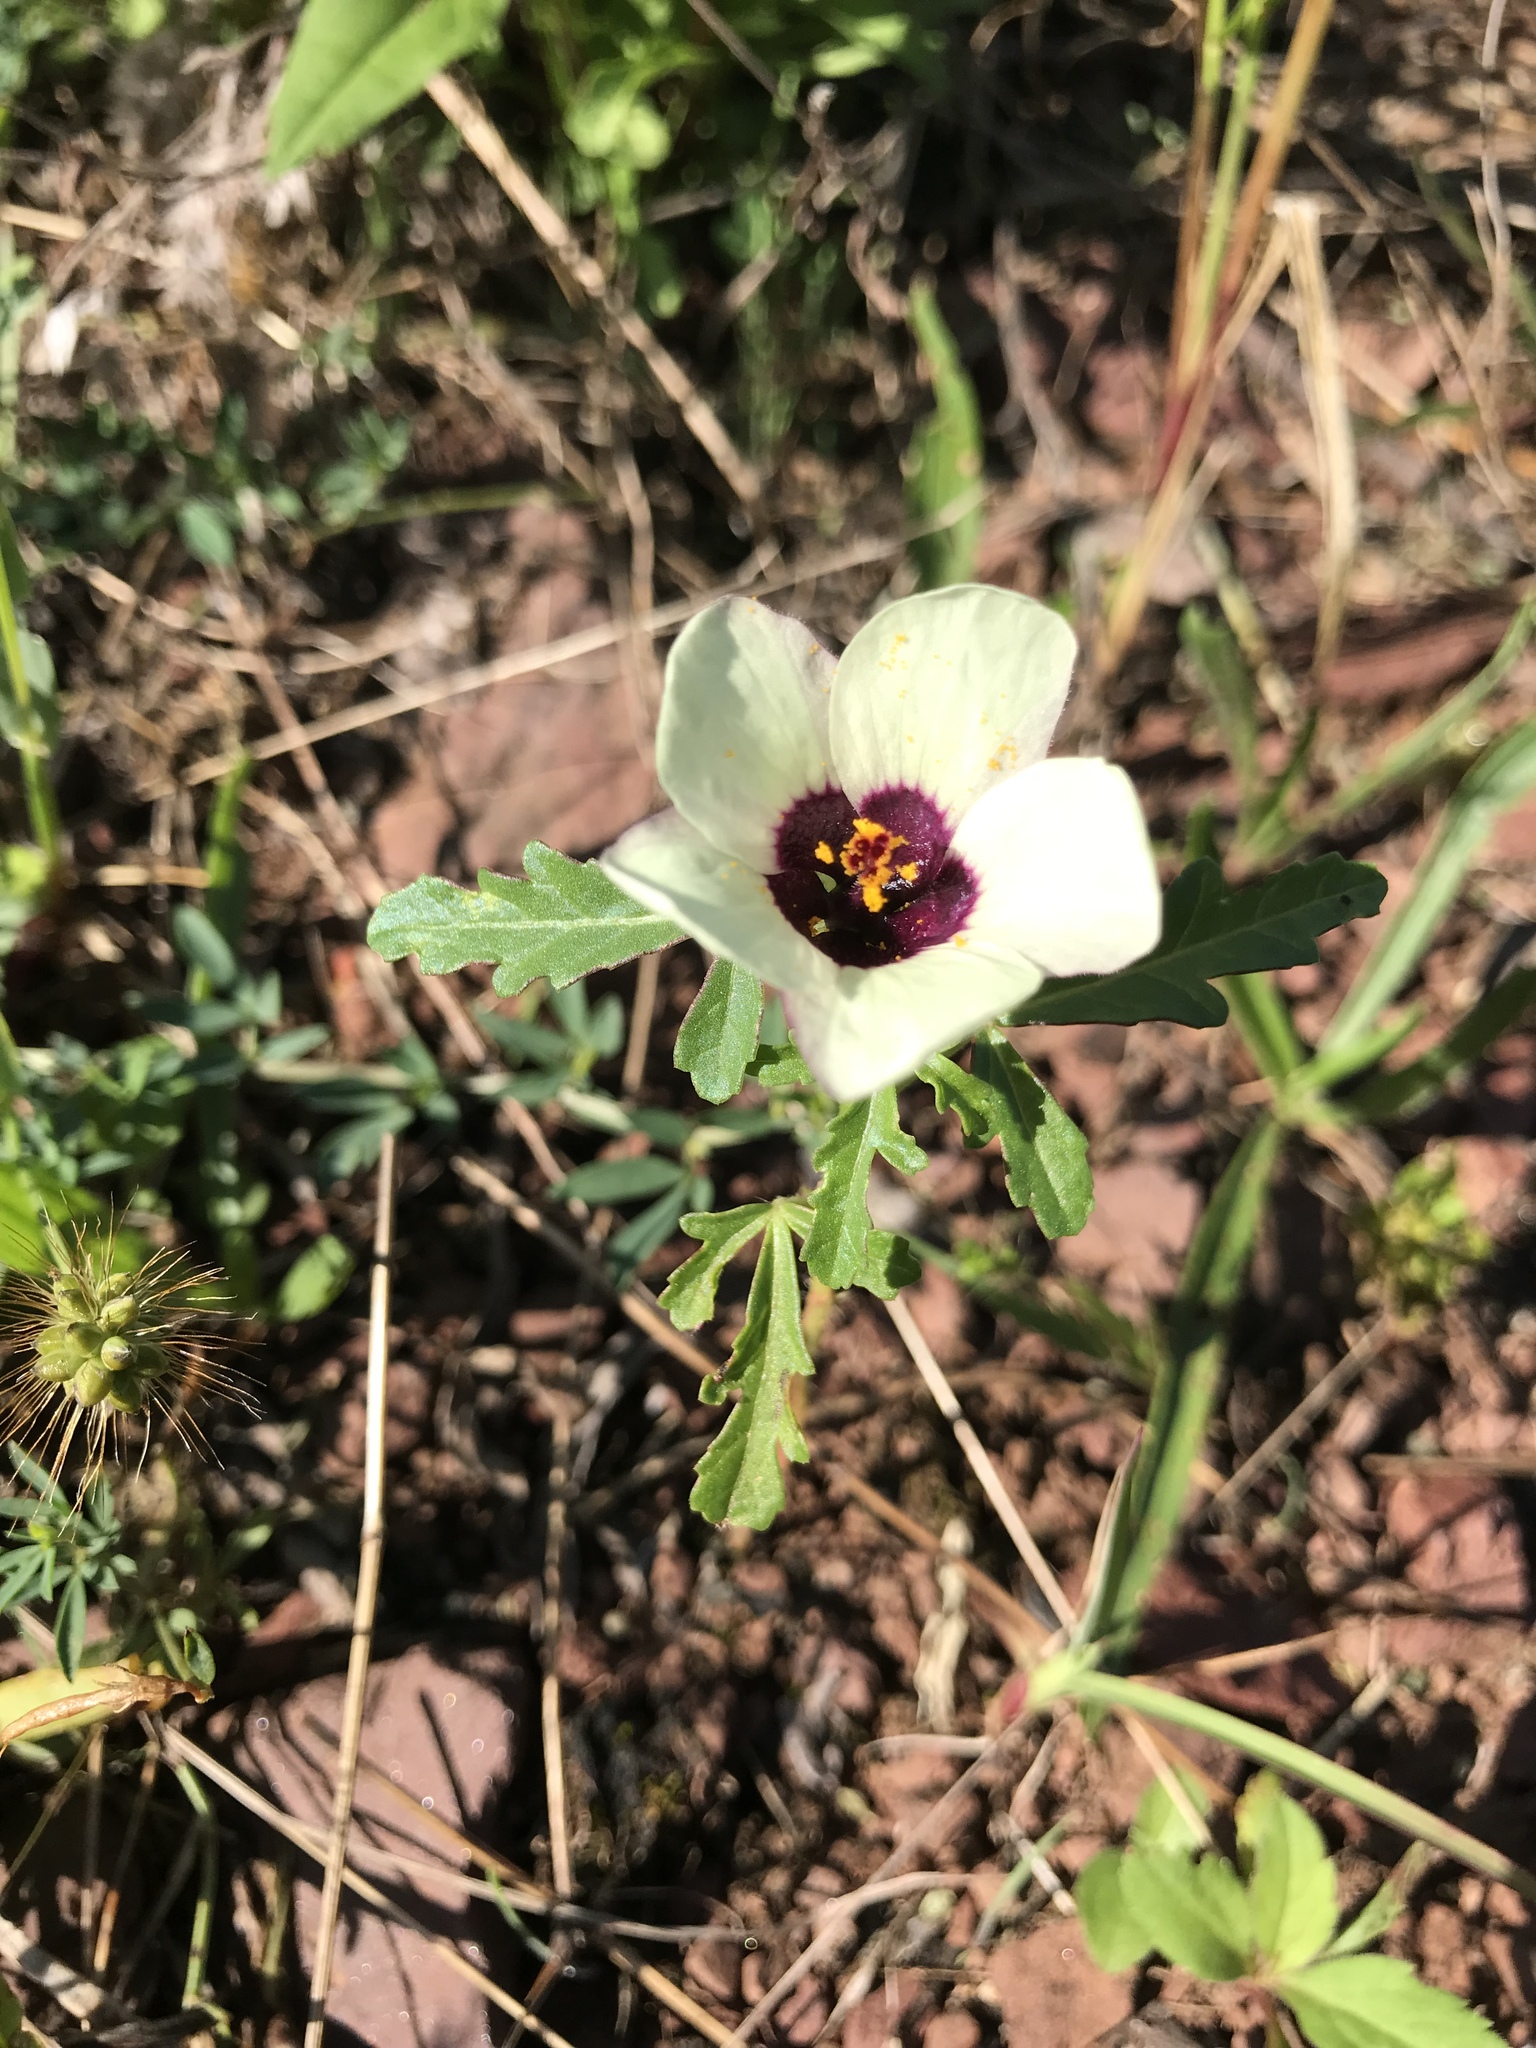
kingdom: Plantae
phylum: Tracheophyta
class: Magnoliopsida
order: Malvales
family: Malvaceae
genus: Hibiscus
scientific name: Hibiscus trionum
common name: Bladder ketmia
